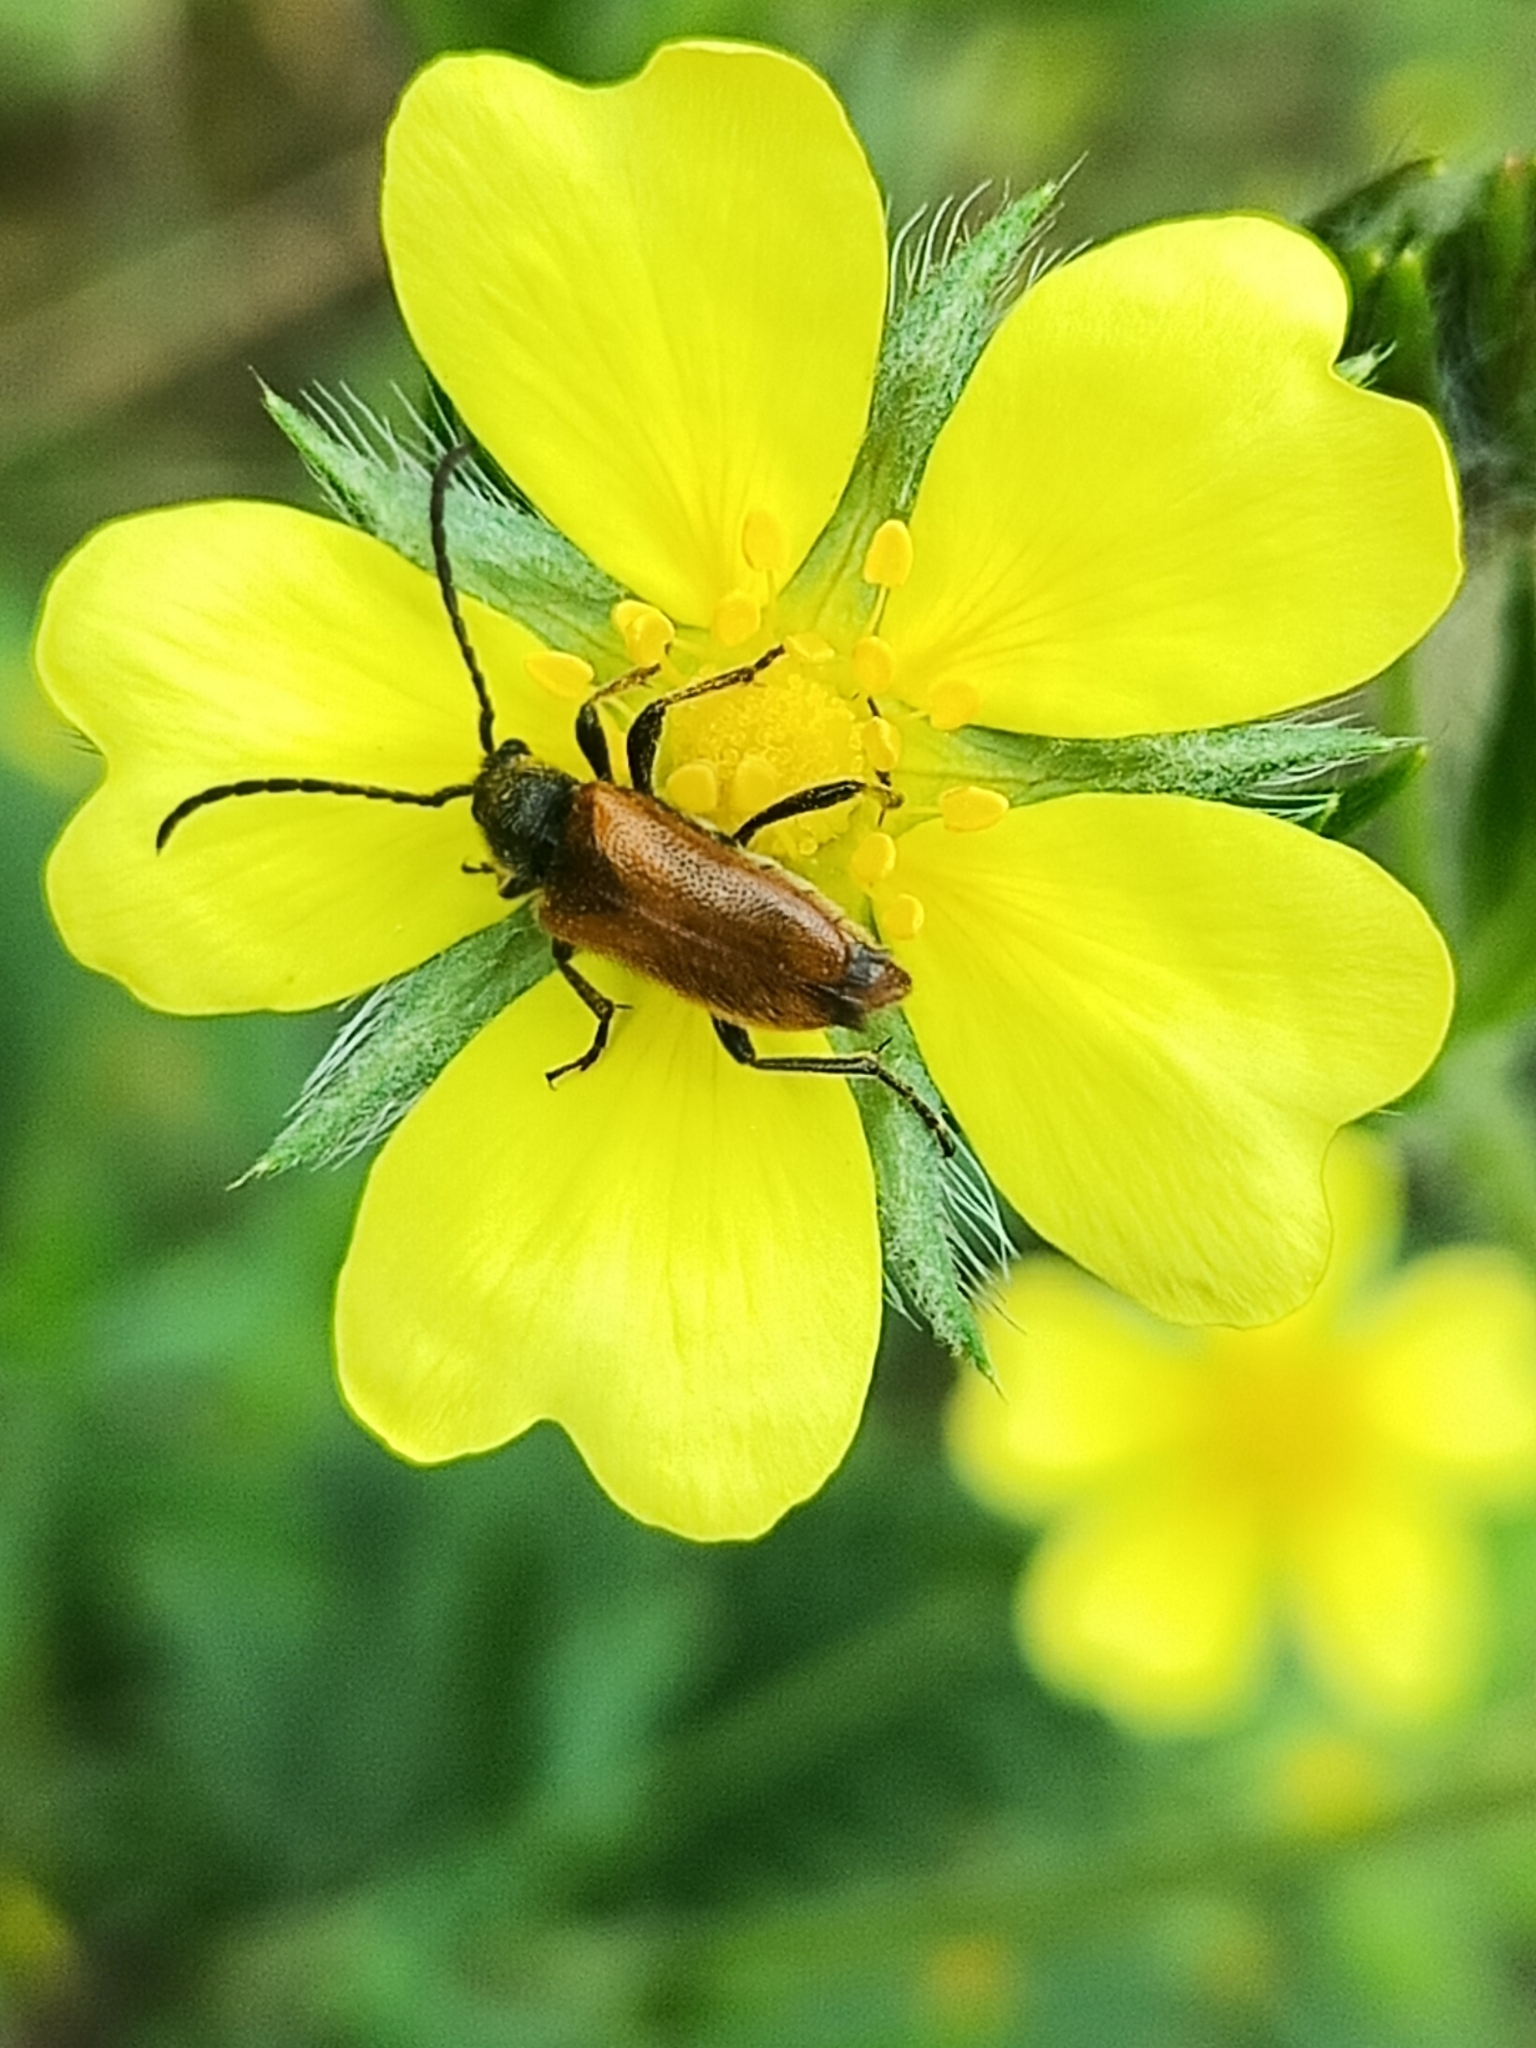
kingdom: Animalia
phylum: Arthropoda
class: Insecta
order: Coleoptera
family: Cerambycidae
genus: Pseudovadonia
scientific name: Pseudovadonia livida
